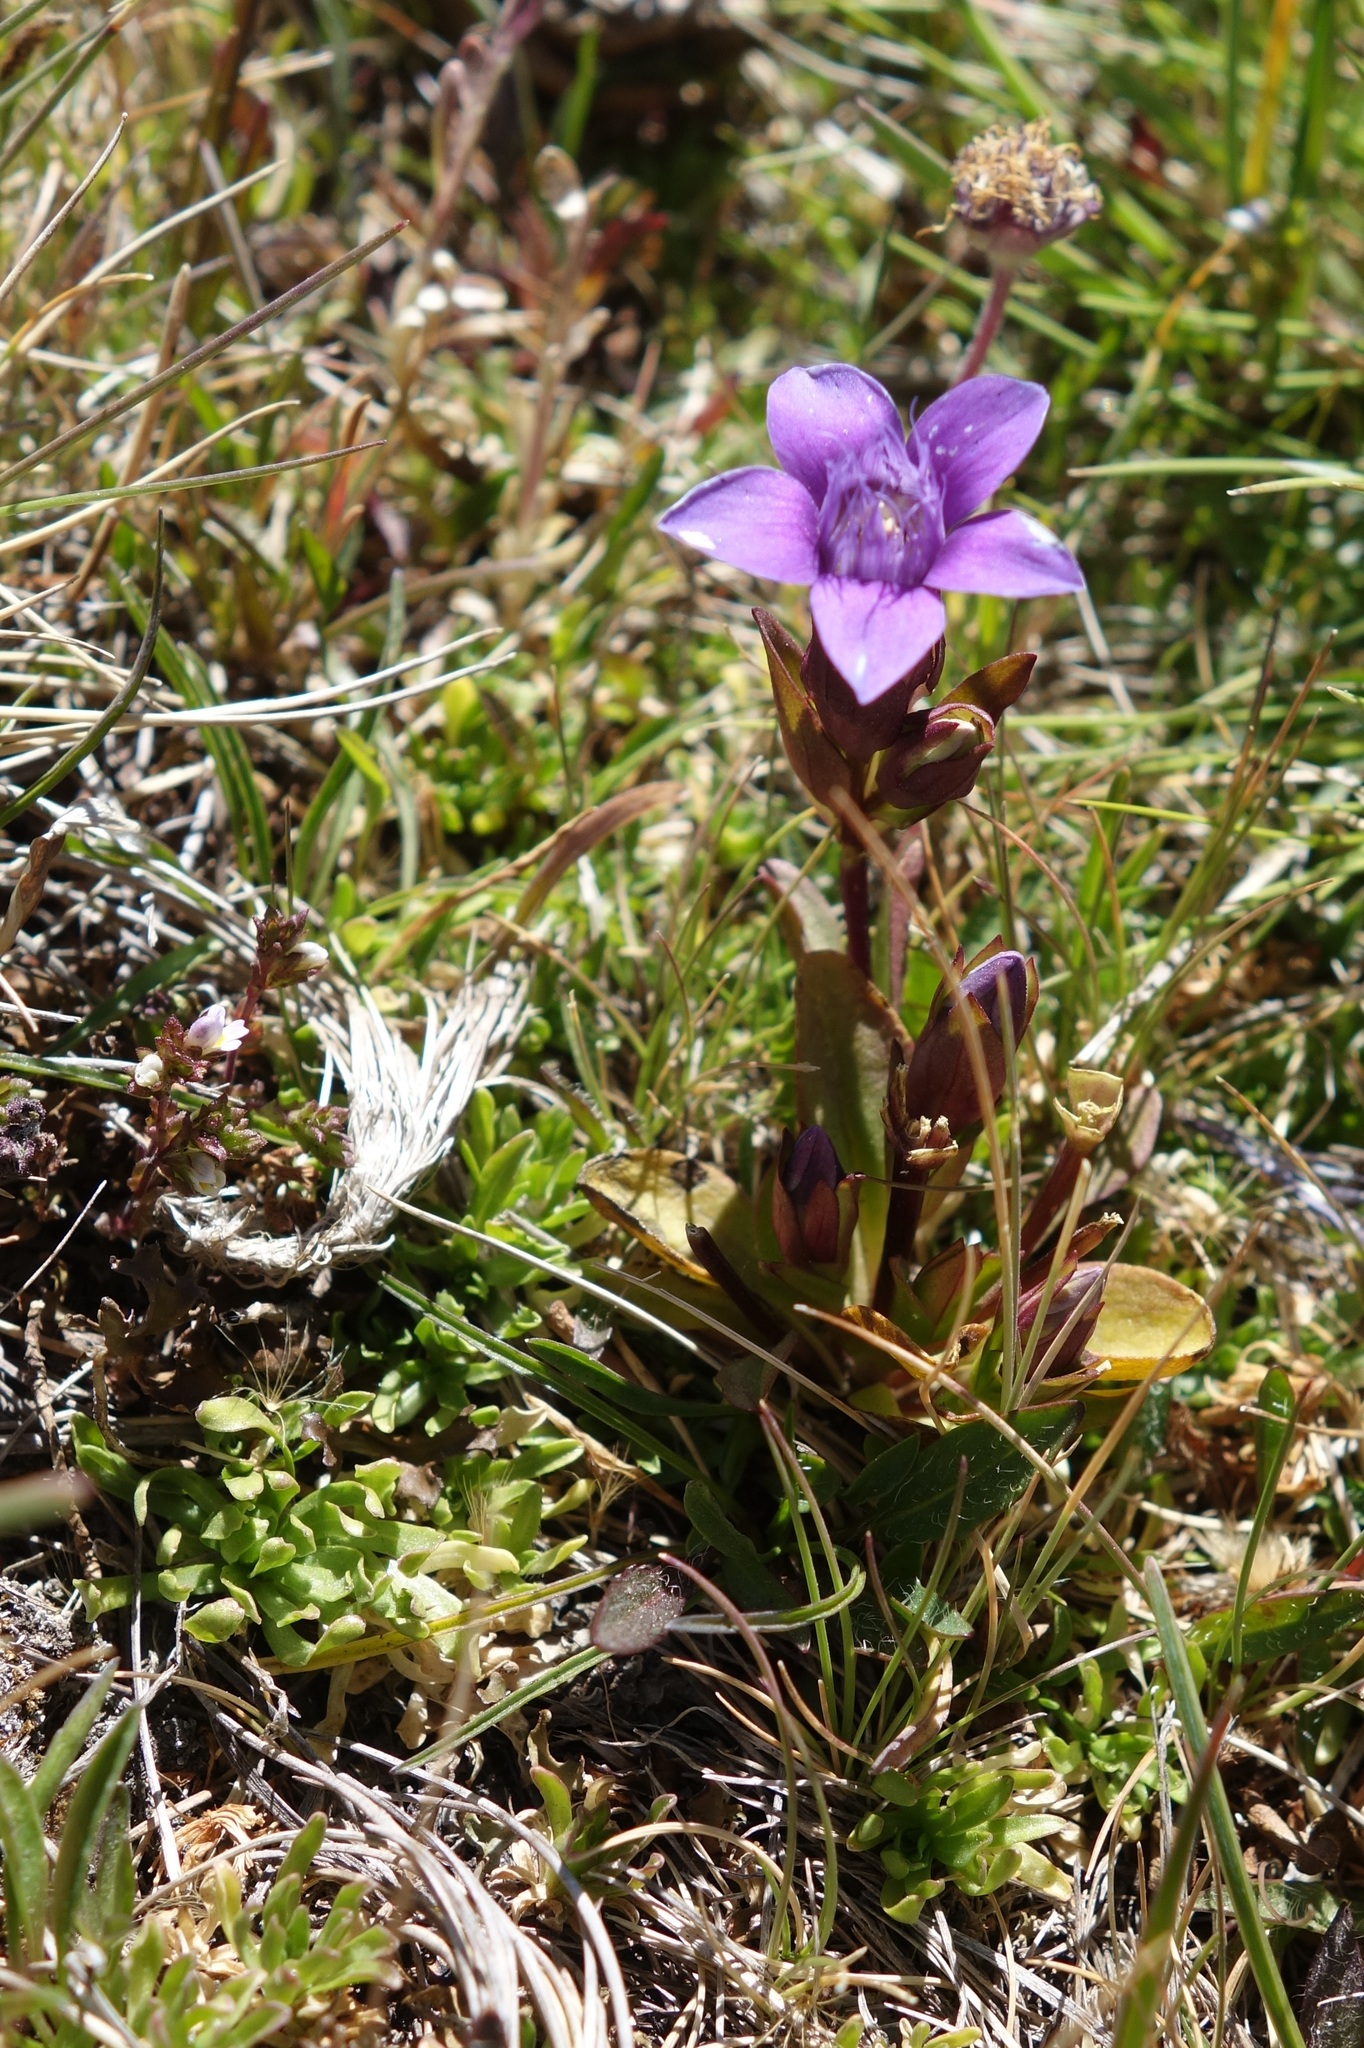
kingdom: Plantae
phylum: Tracheophyta
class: Magnoliopsida
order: Gentianales
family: Gentianaceae
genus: Gentianella
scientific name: Gentianella campestris
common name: Field gentian
